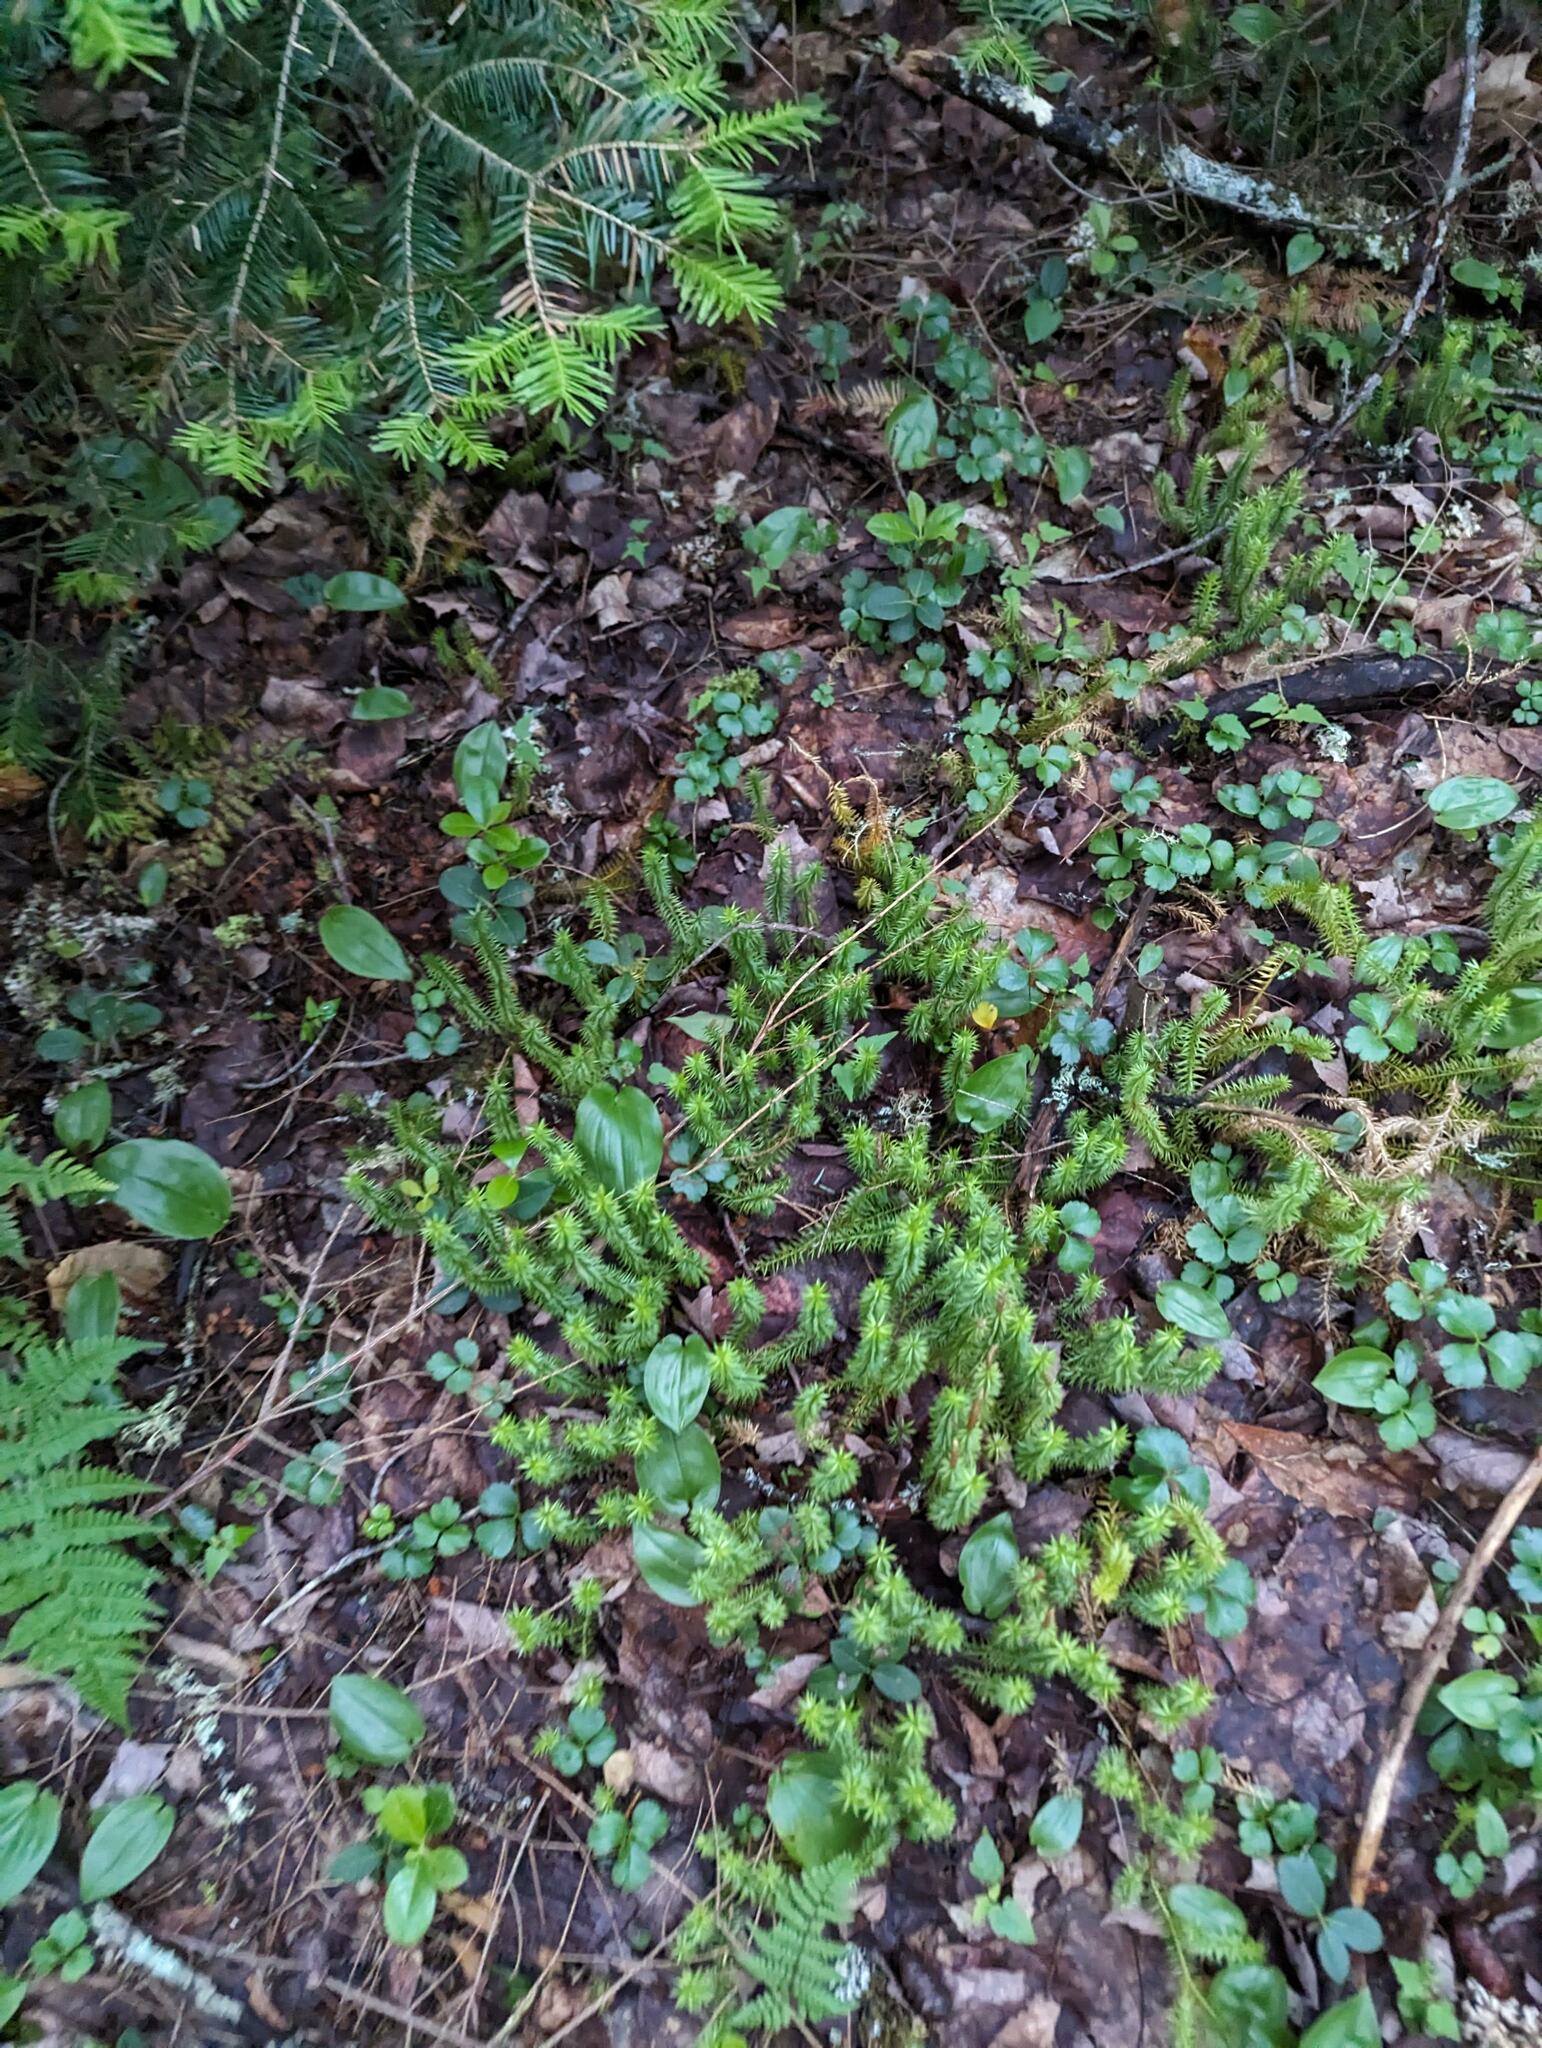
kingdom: Plantae
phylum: Tracheophyta
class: Lycopodiopsida
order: Lycopodiales
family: Lycopodiaceae
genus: Spinulum
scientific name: Spinulum annotinum
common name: Interrupted club-moss
